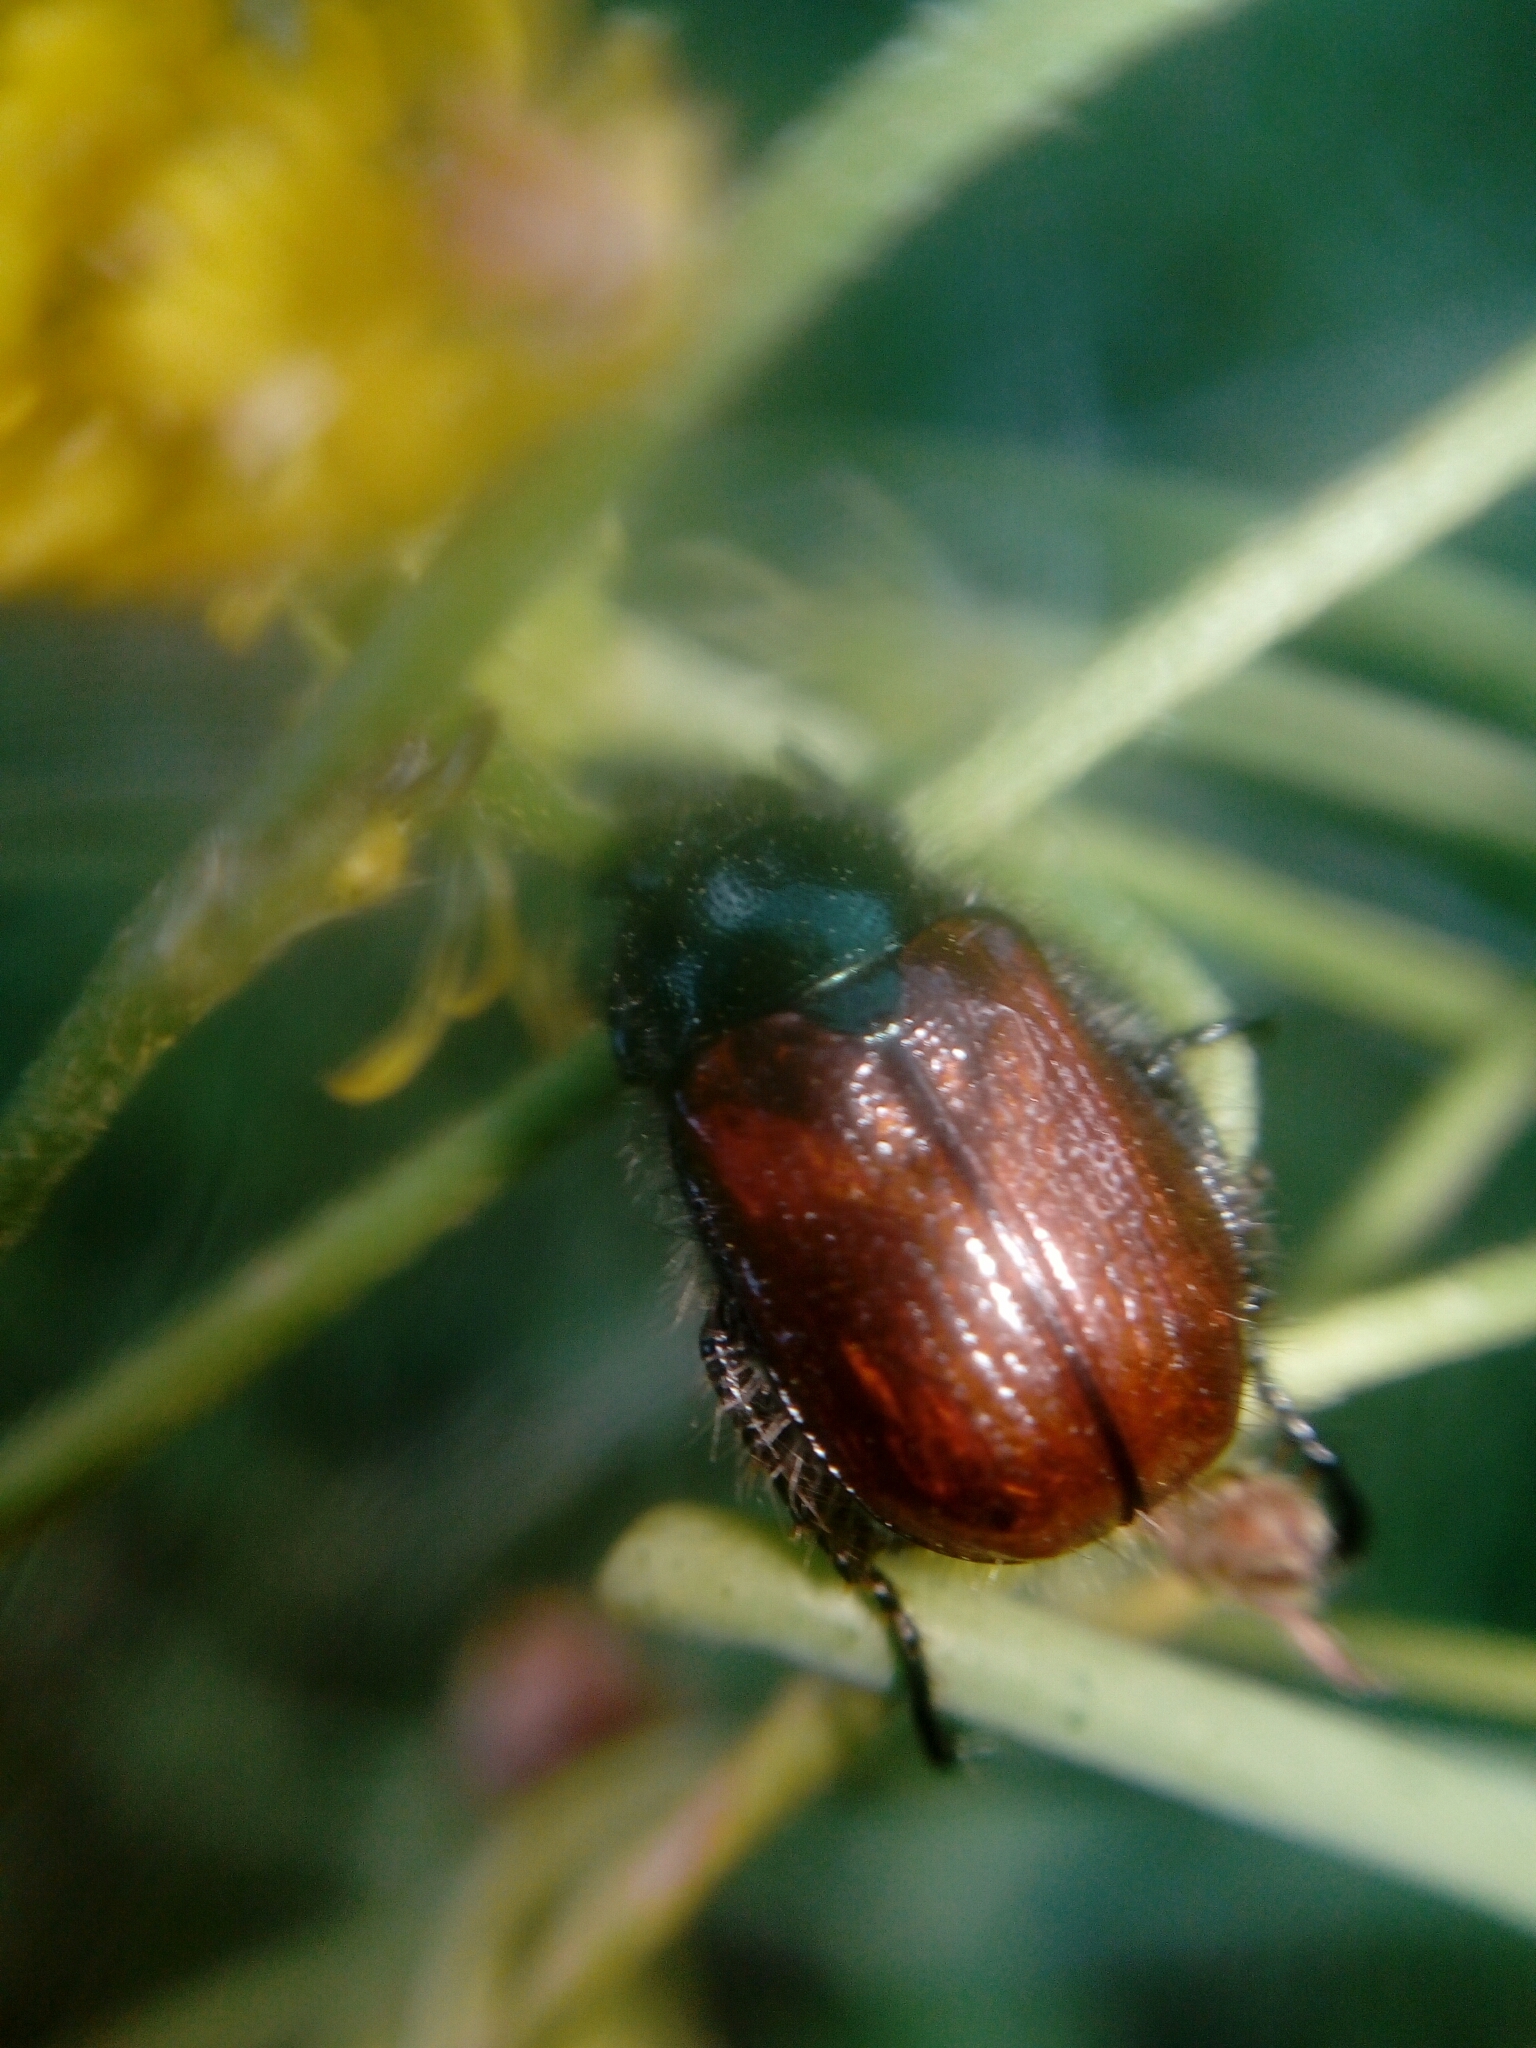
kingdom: Animalia
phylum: Arthropoda
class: Insecta
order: Coleoptera
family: Scarabaeidae
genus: Phyllopertha
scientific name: Phyllopertha horticola
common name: Garden chafer
